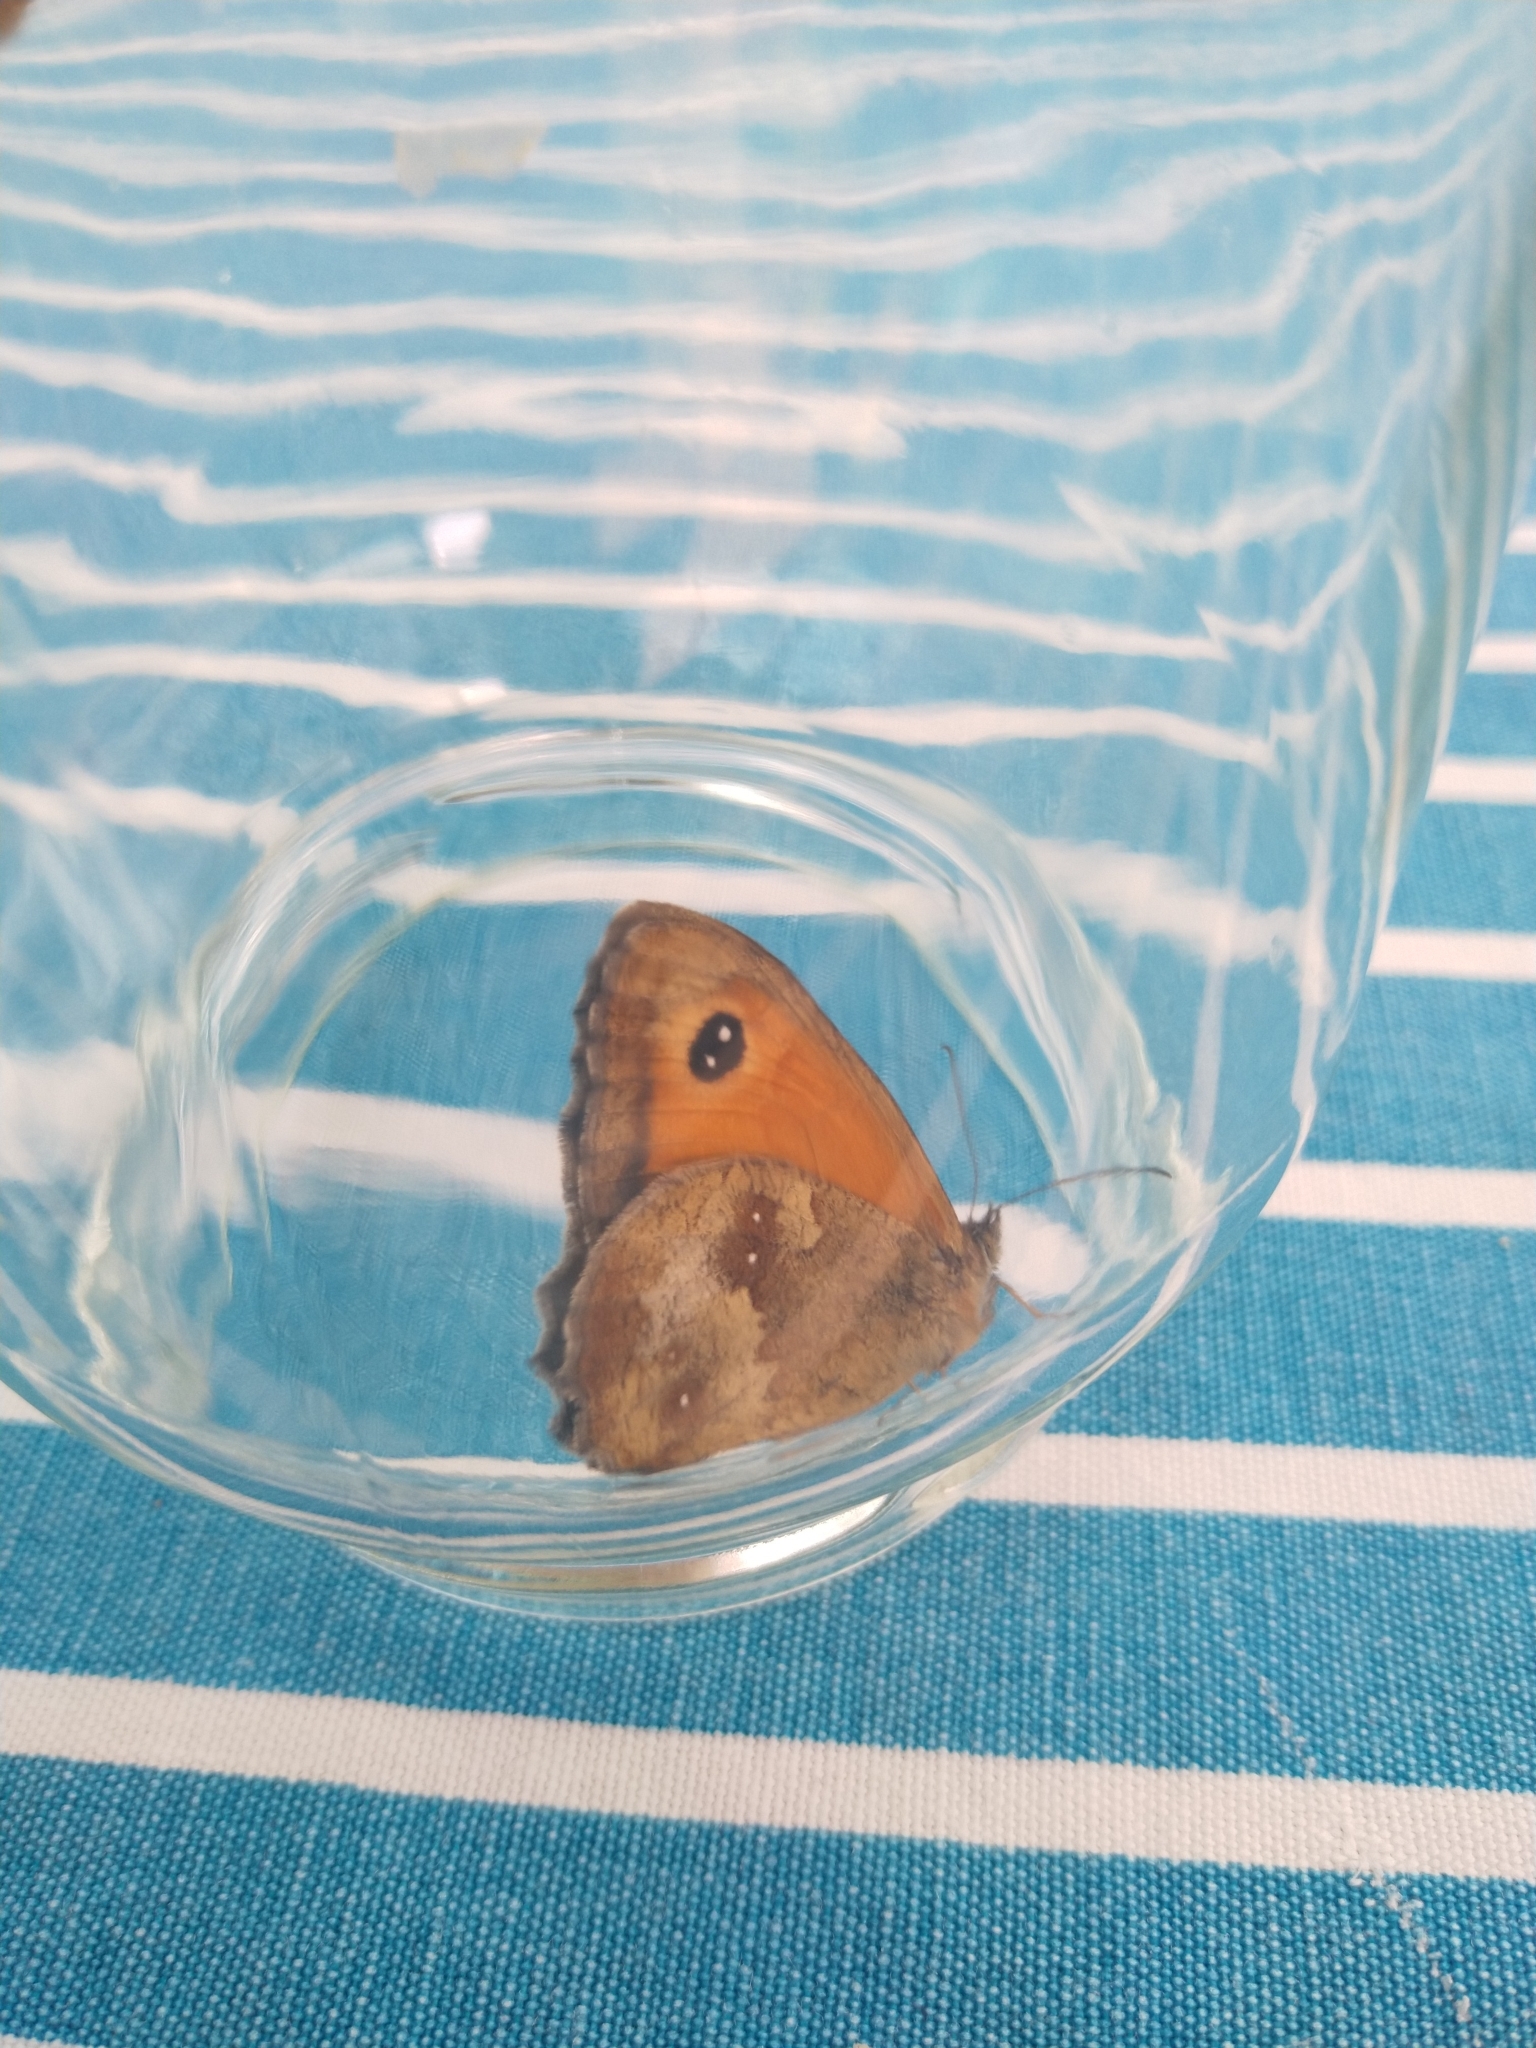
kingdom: Animalia
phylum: Arthropoda
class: Insecta
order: Lepidoptera
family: Nymphalidae
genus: Pyronia
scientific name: Pyronia tithonus
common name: Gatekeeper
